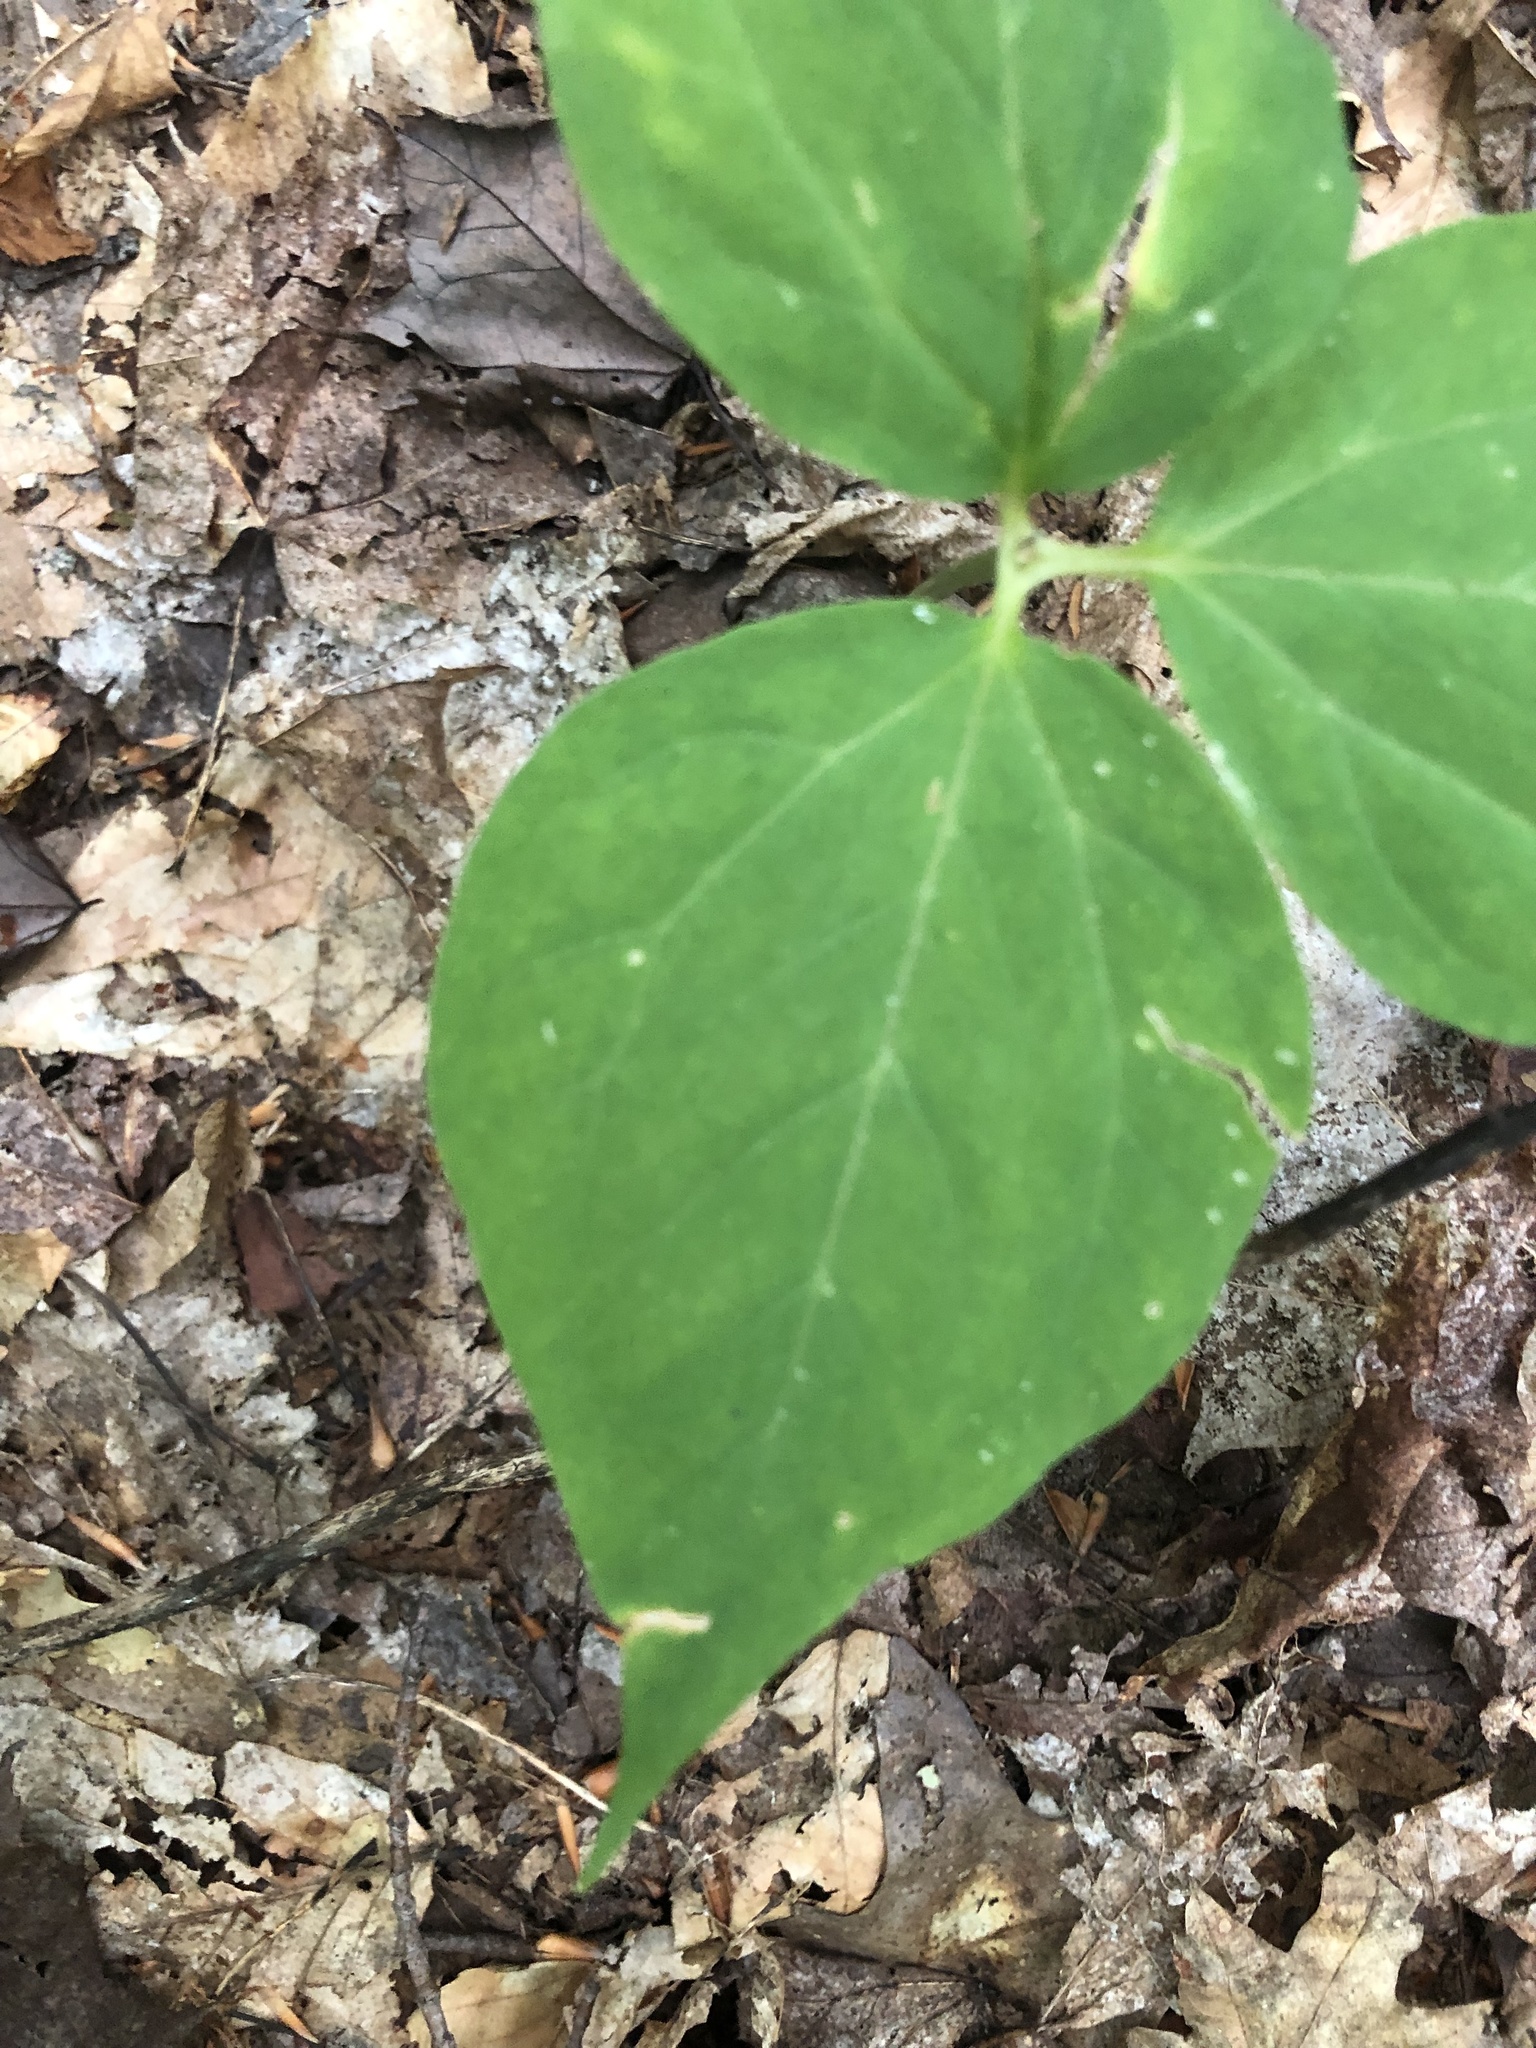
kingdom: Plantae
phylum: Tracheophyta
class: Liliopsida
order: Liliales
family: Melanthiaceae
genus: Trillium
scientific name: Trillium undulatum
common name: Paint trillium
